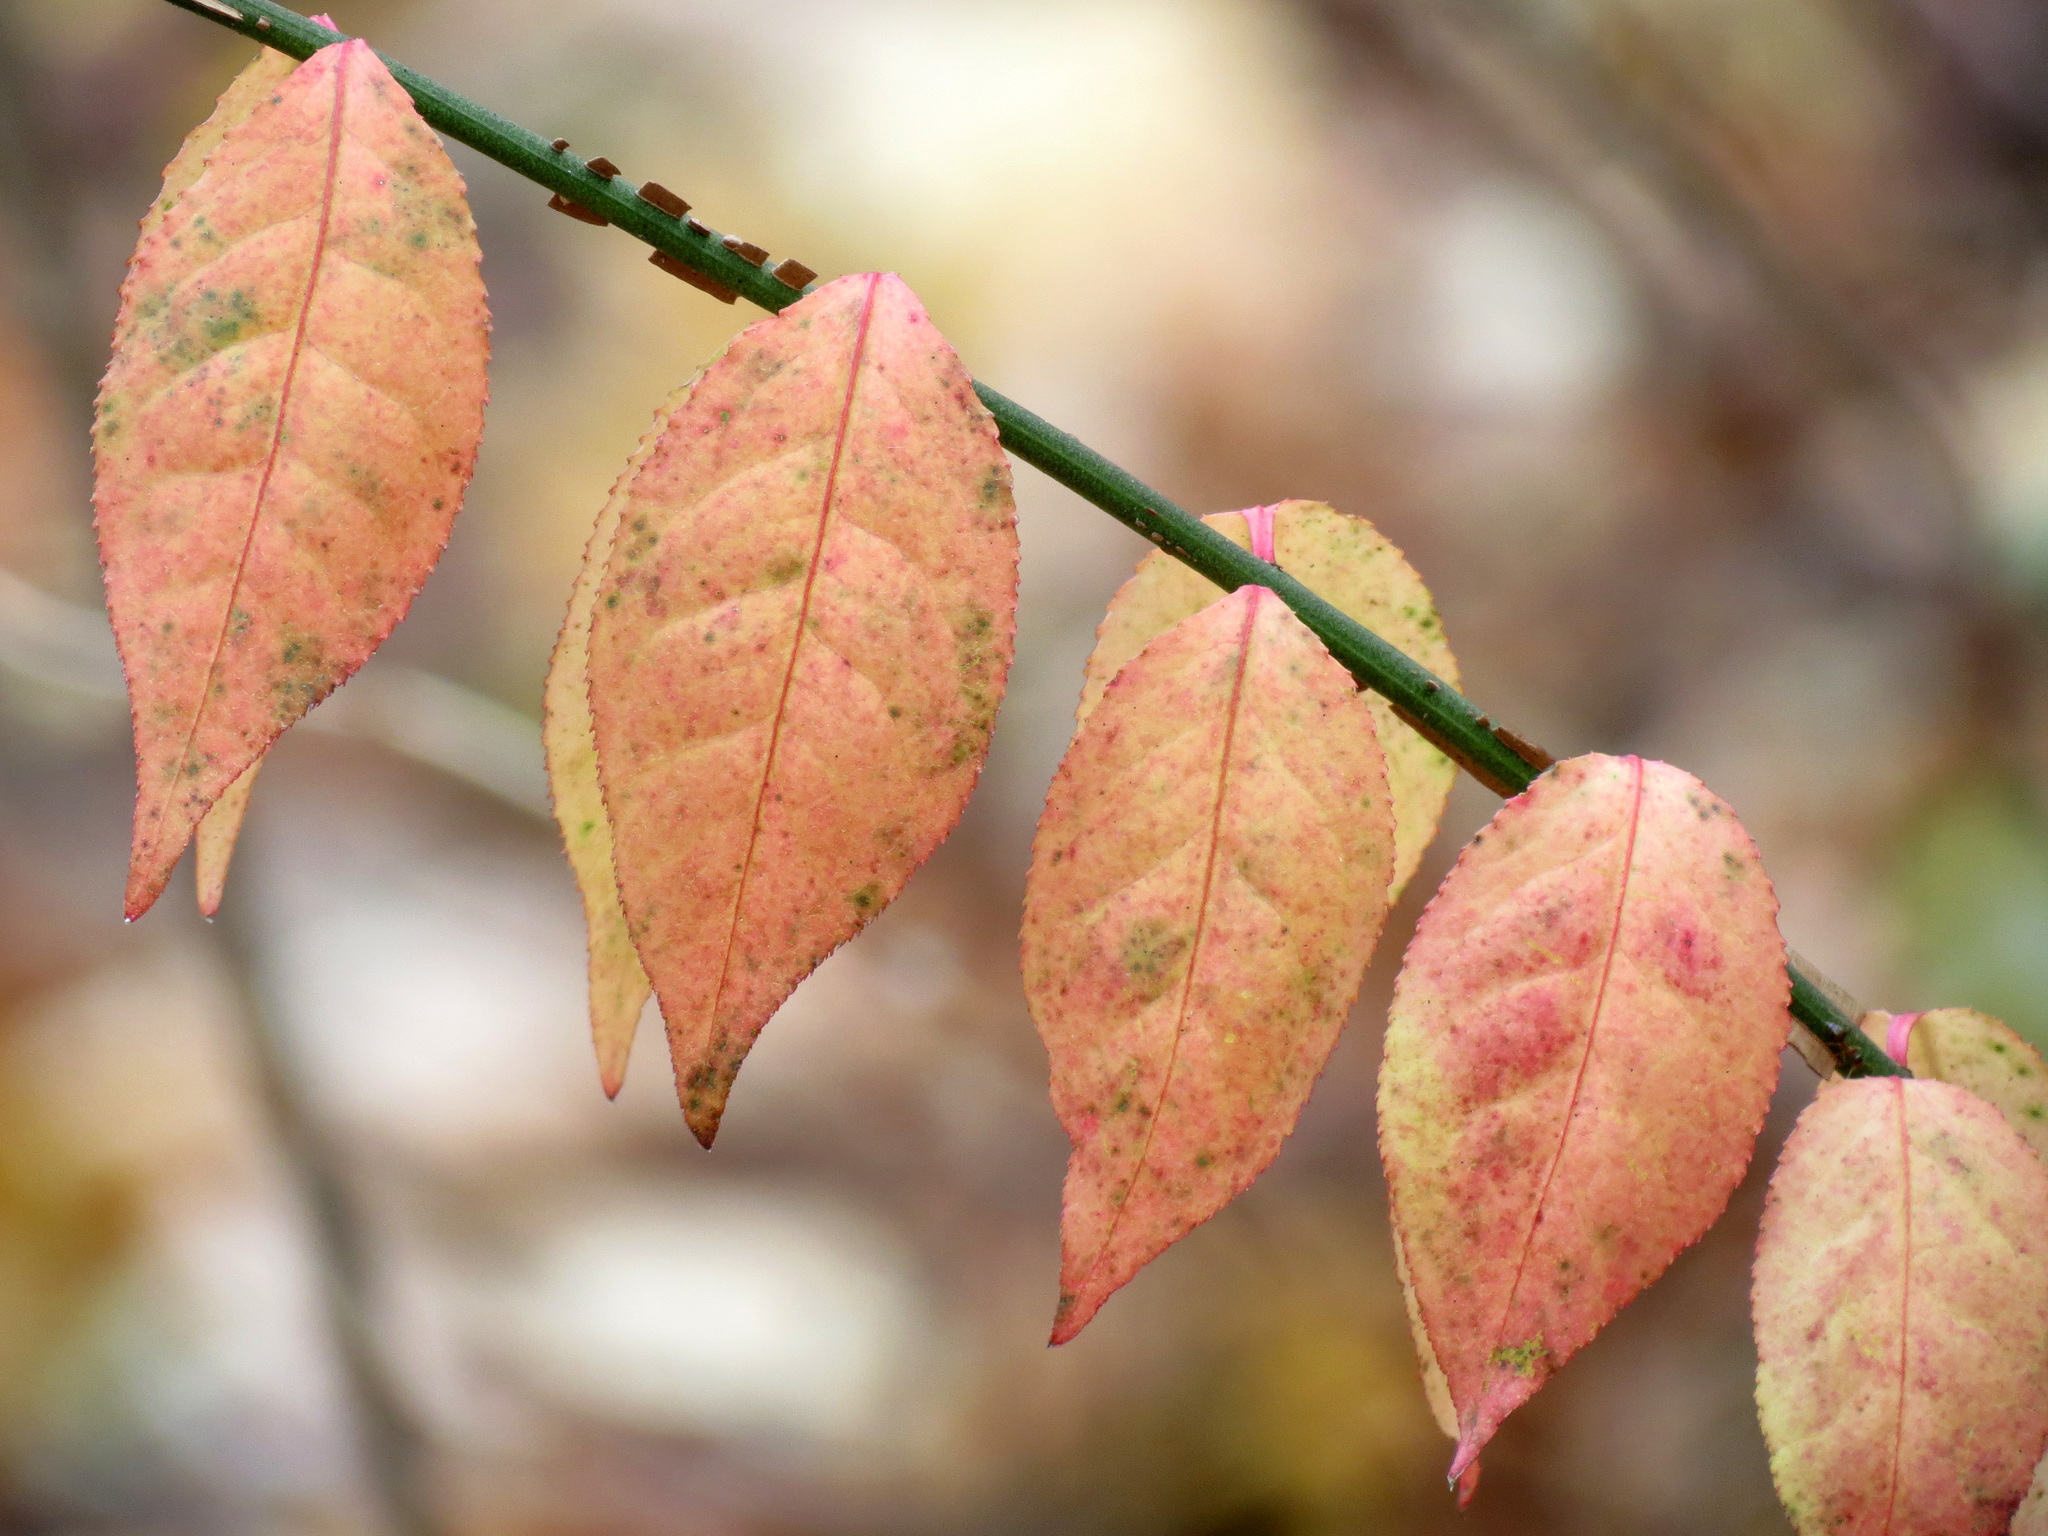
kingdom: Plantae
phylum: Tracheophyta
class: Magnoliopsida
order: Celastrales
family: Celastraceae
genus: Euonymus
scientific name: Euonymus alatus
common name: Winged euonymus
